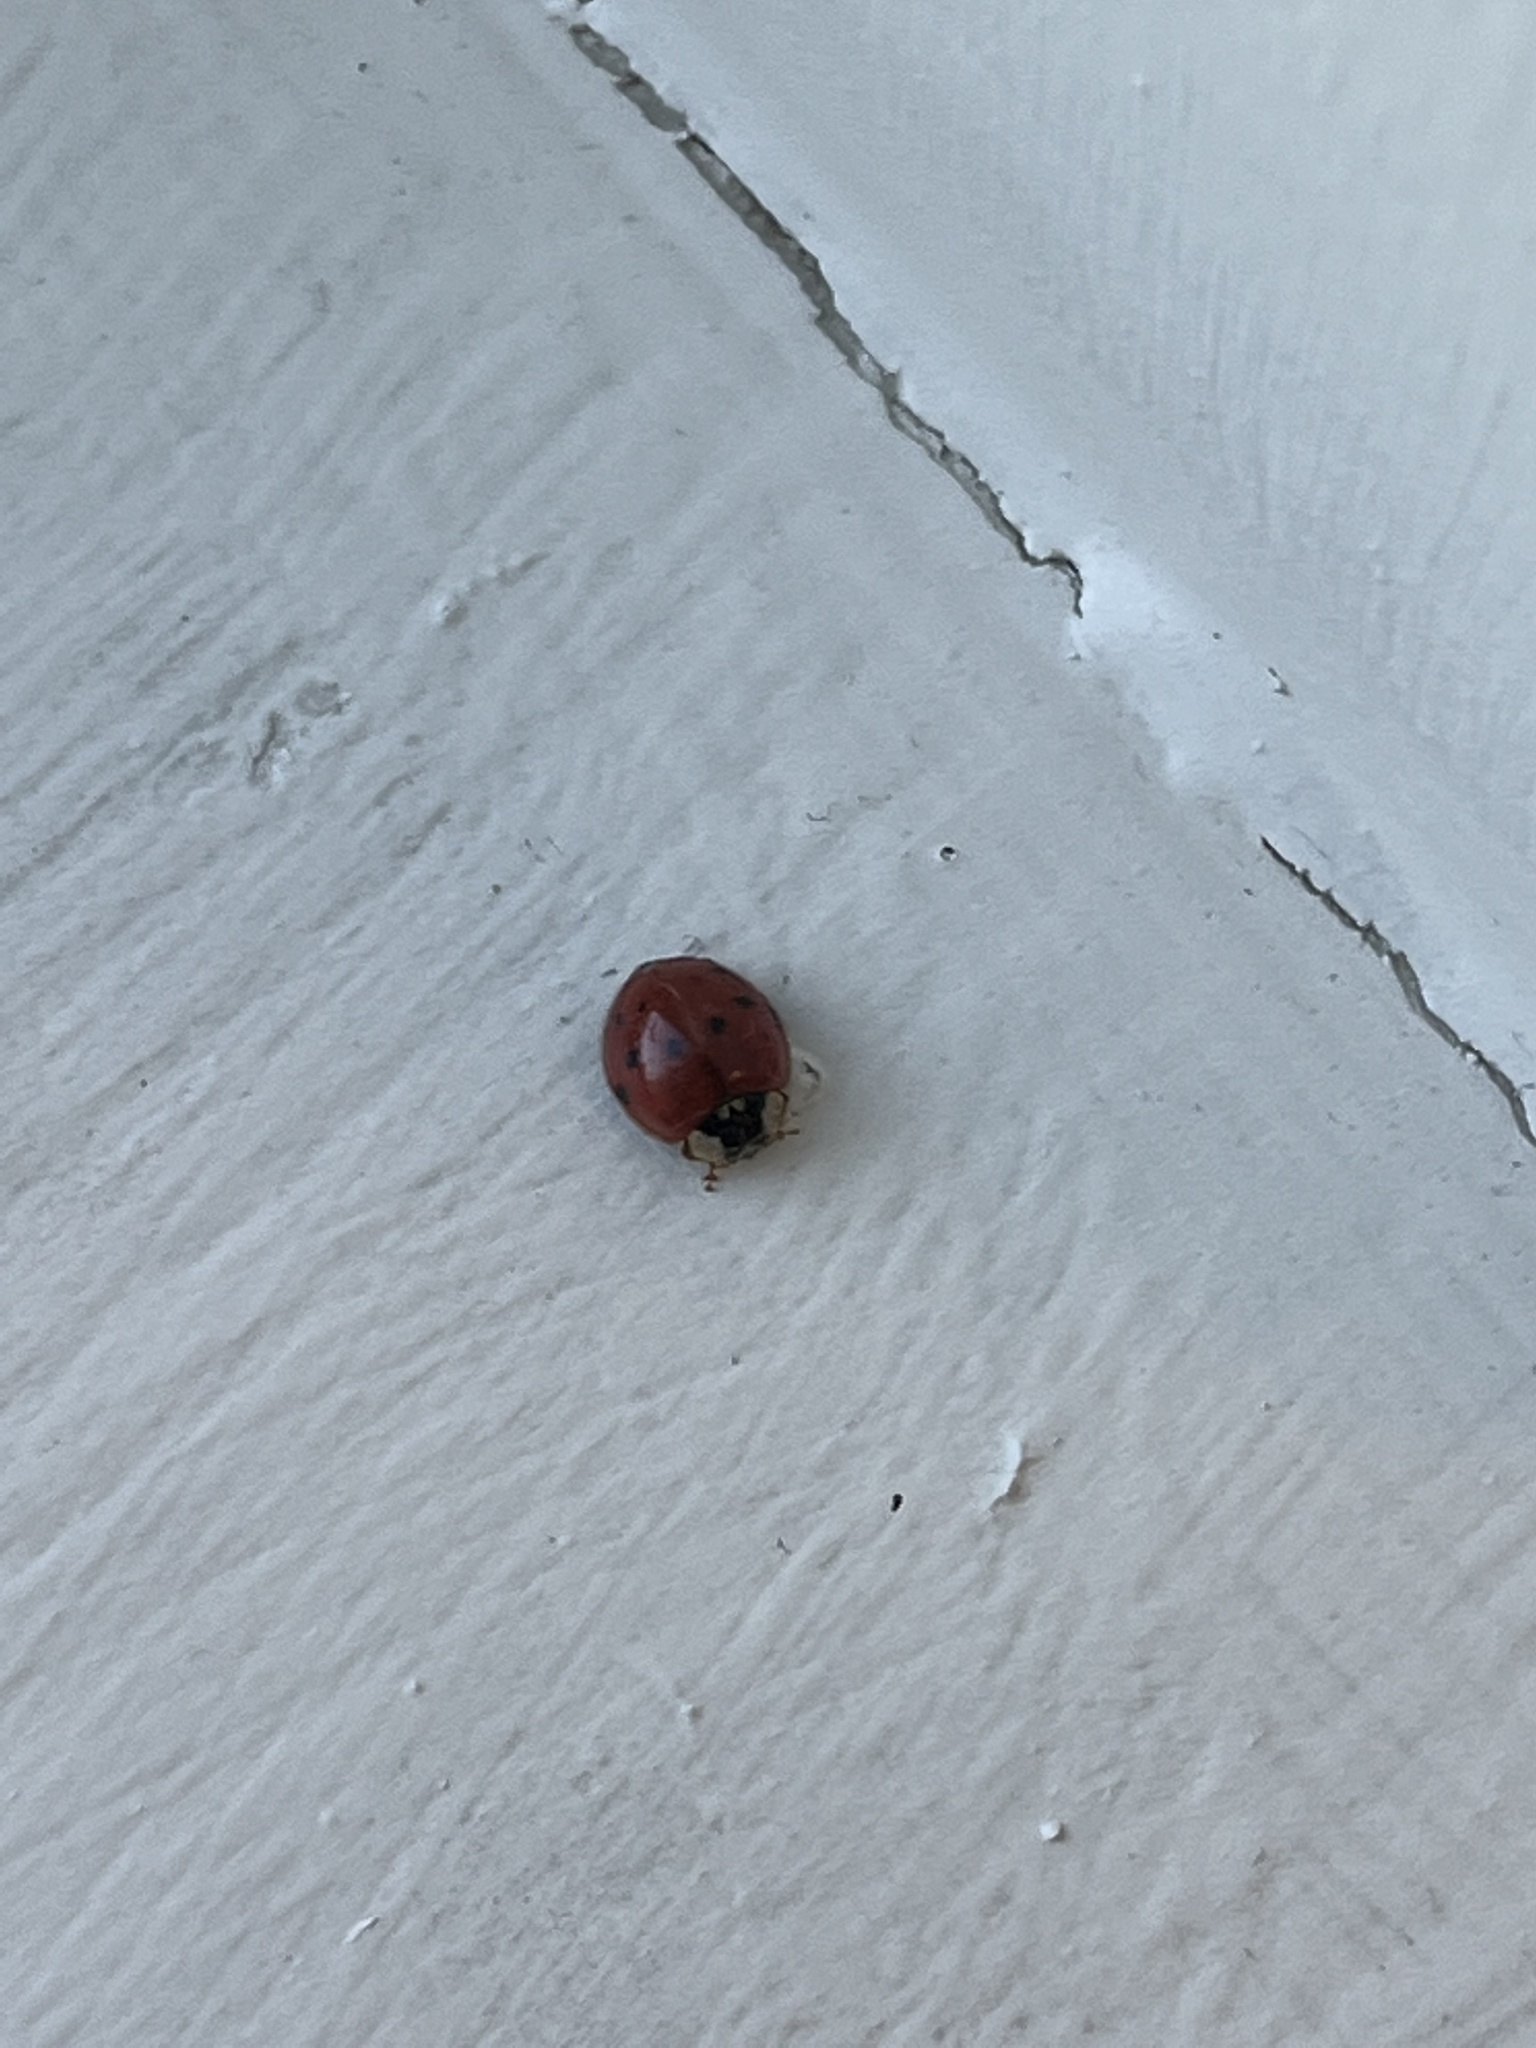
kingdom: Animalia
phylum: Arthropoda
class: Insecta
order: Coleoptera
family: Coccinellidae
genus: Harmonia
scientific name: Harmonia axyridis
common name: Harlequin ladybird
